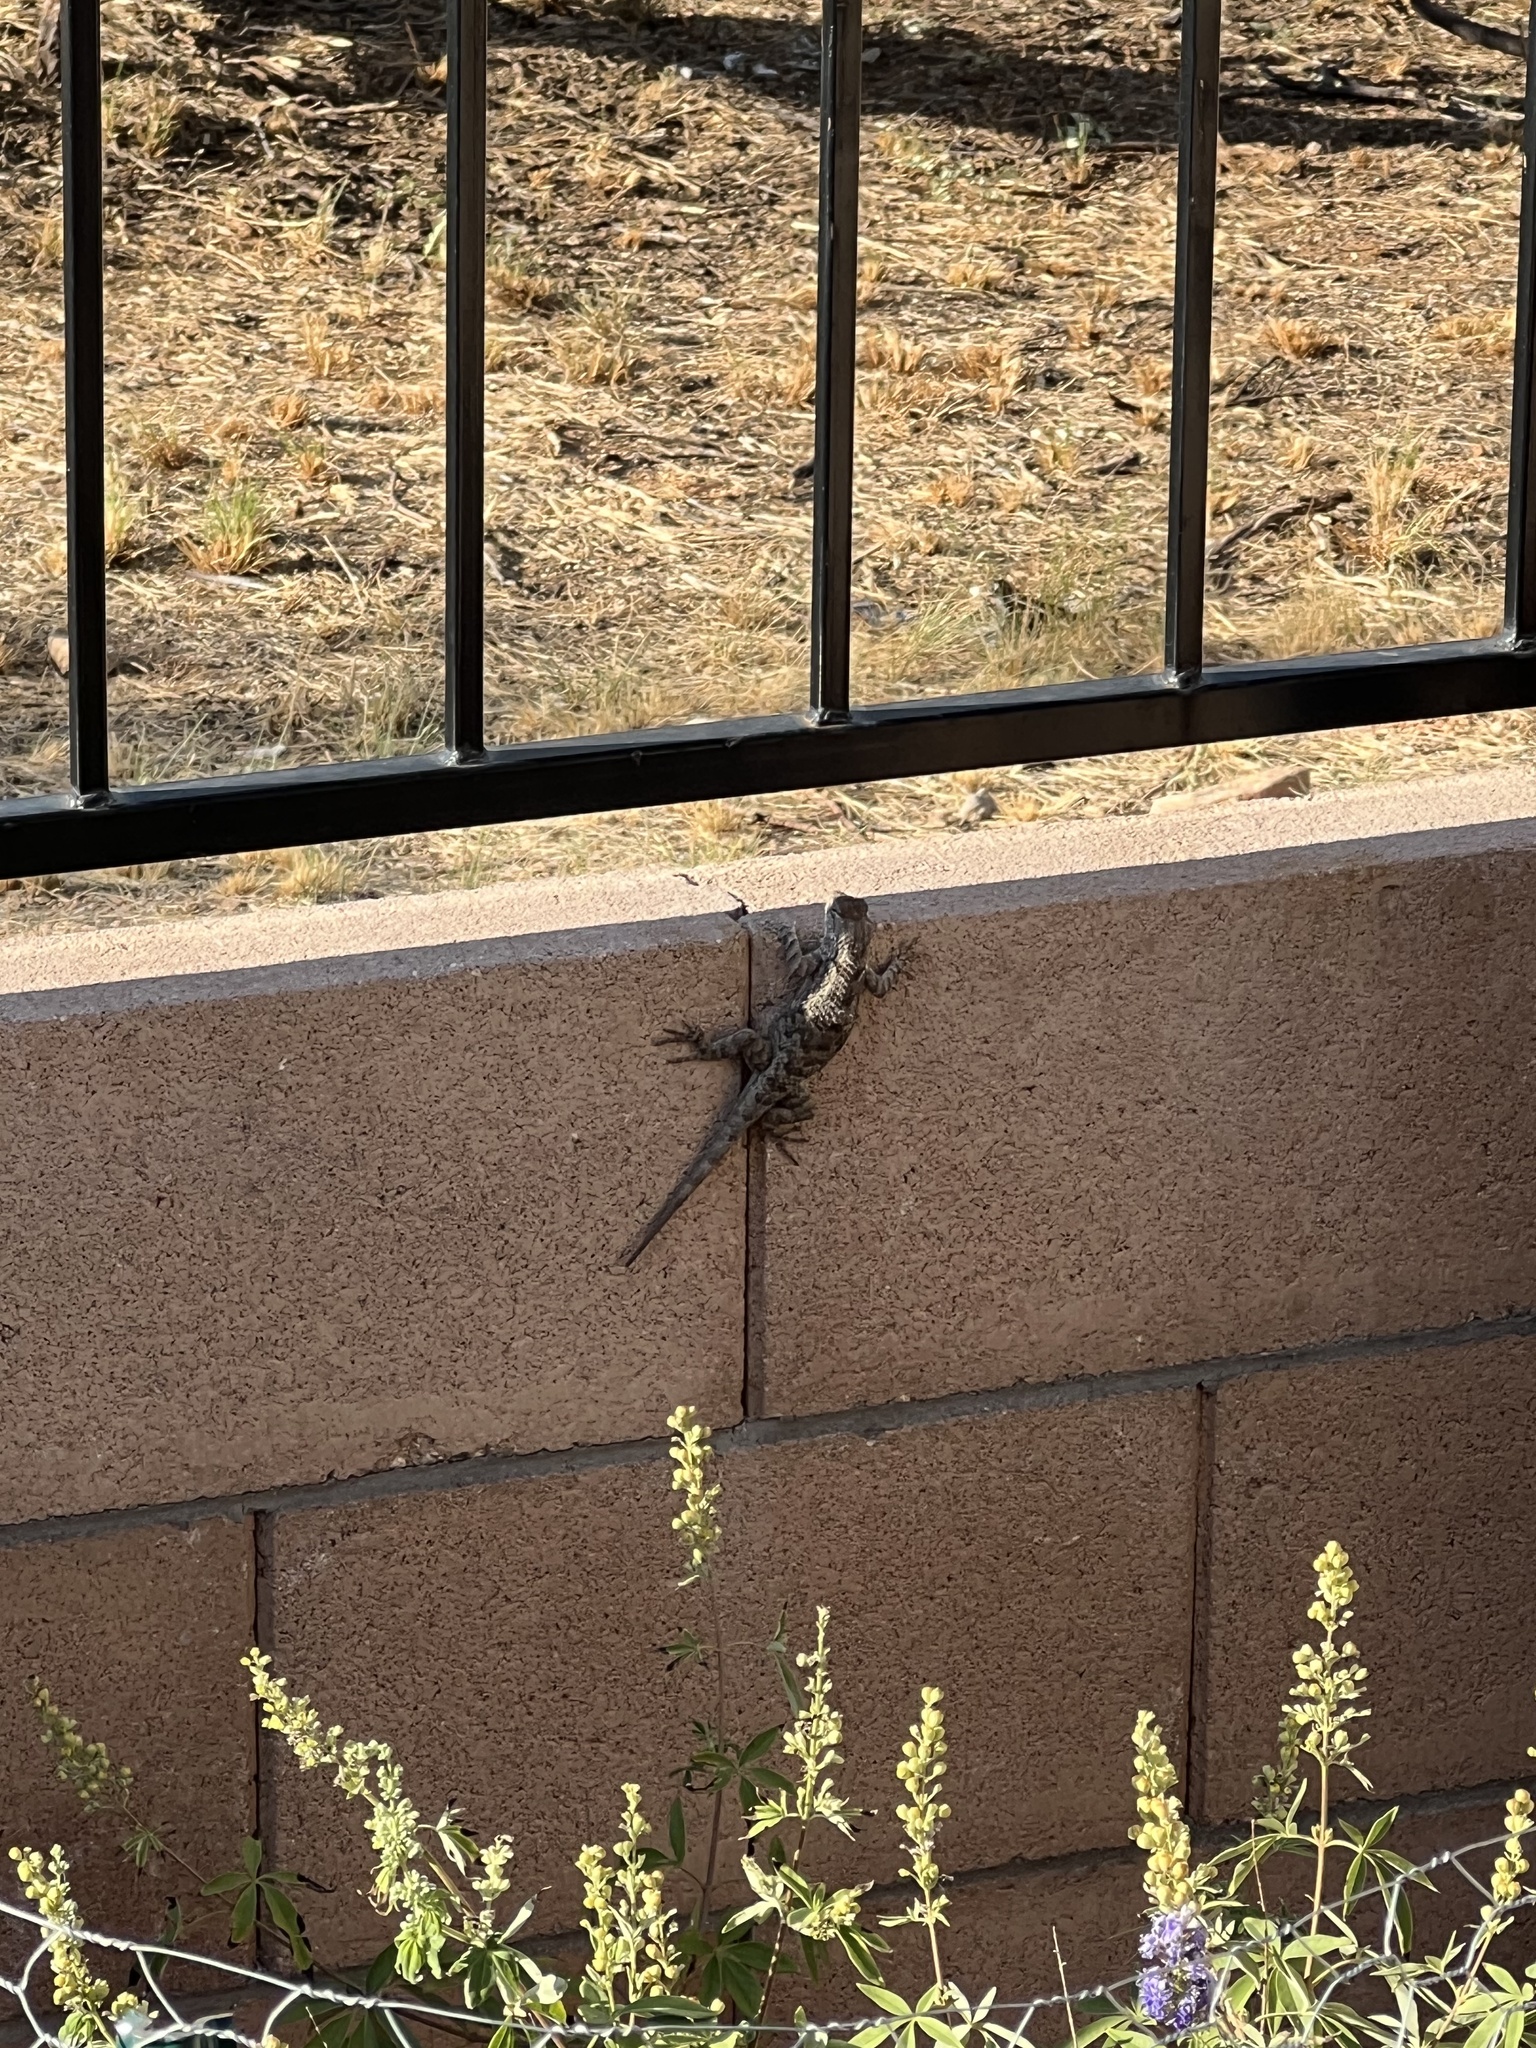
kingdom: Animalia
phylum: Chordata
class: Squamata
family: Phrynosomatidae
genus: Sceloporus
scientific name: Sceloporus clarkii
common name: Clark's spiny lizard
